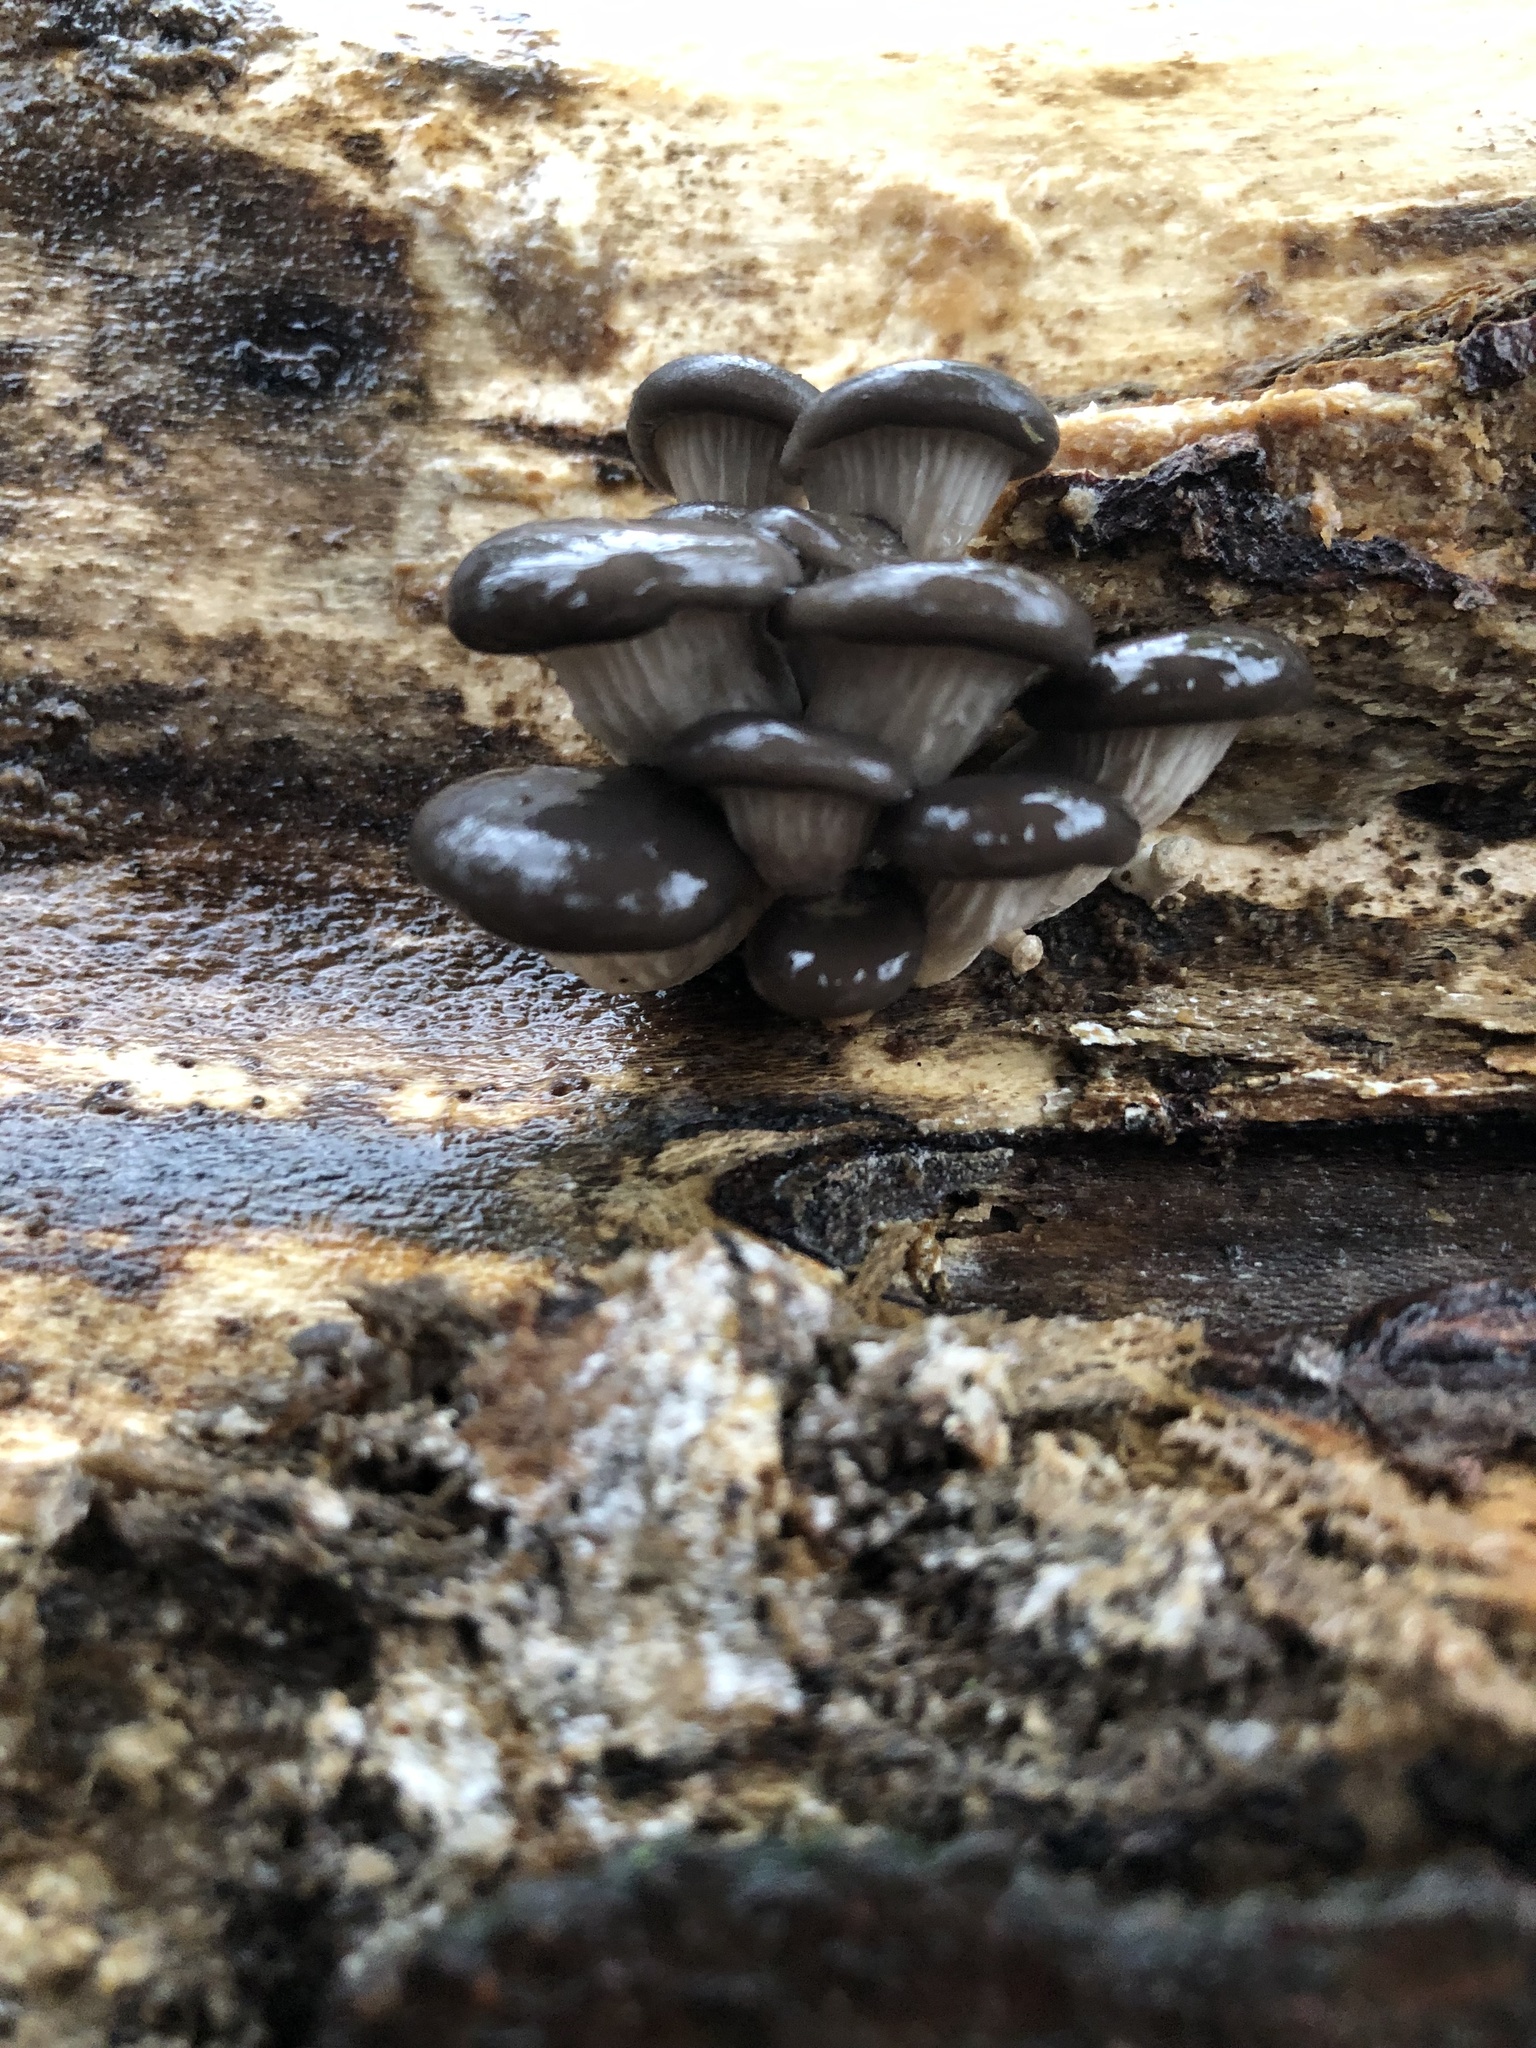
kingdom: Fungi
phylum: Basidiomycota
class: Agaricomycetes
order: Agaricales
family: Pleurotaceae
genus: Pleurotus
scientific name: Pleurotus ostreatus
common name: Oyster mushroom
